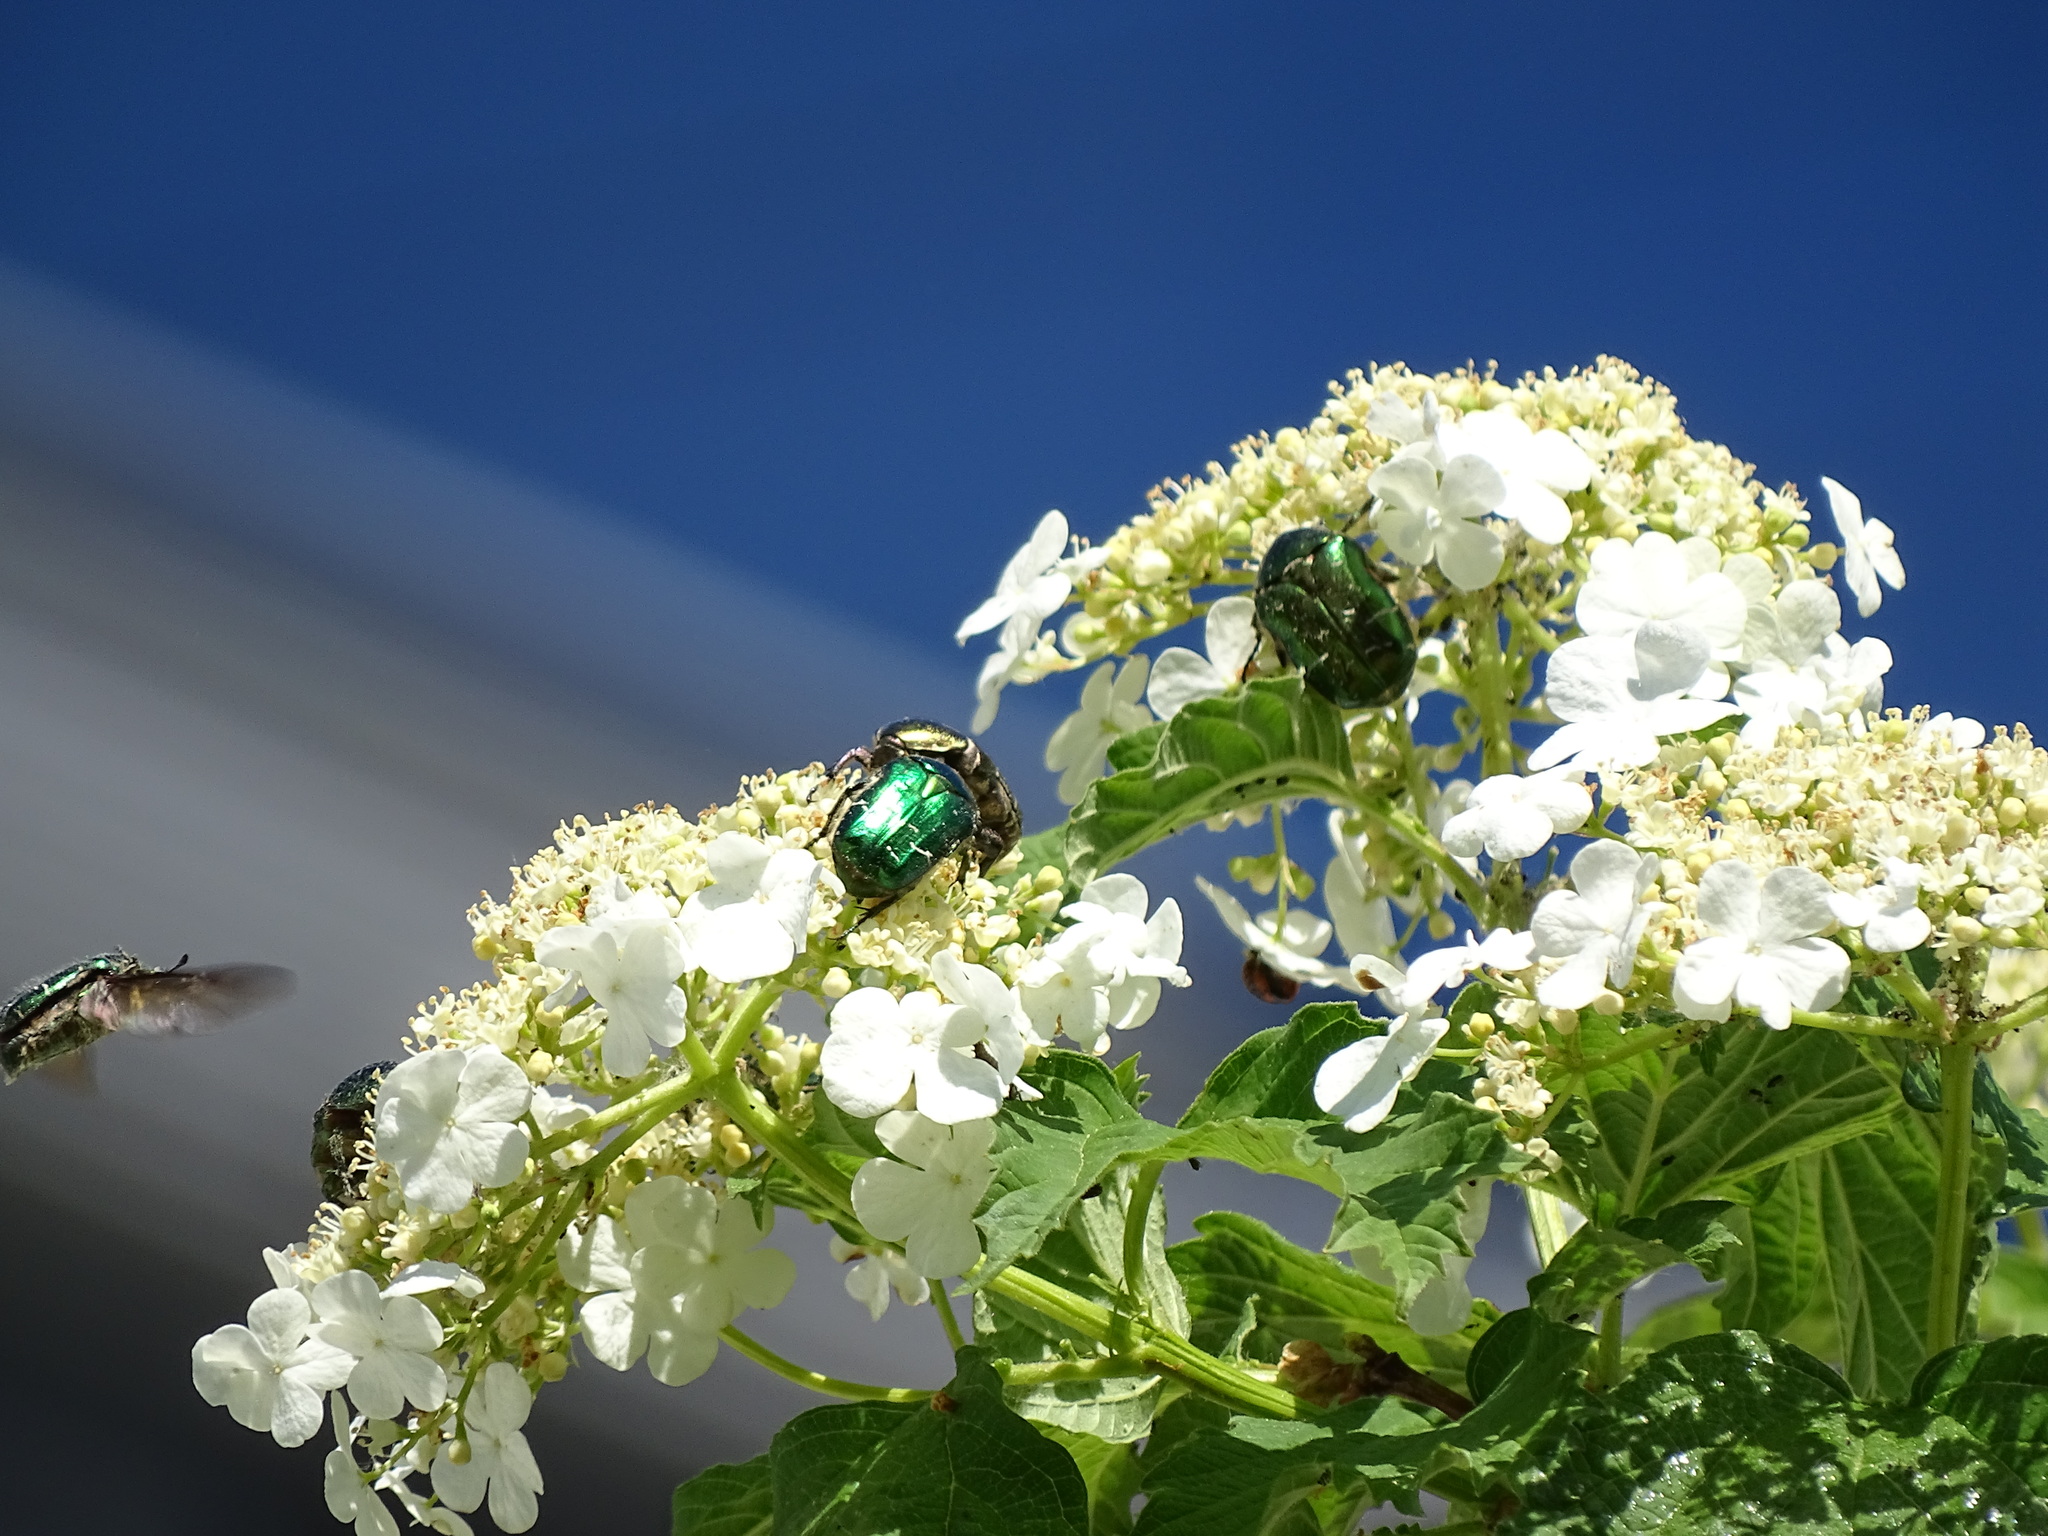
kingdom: Animalia
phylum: Arthropoda
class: Insecta
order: Coleoptera
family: Scarabaeidae
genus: Cetonia
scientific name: Cetonia aurata
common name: Rose chafer
